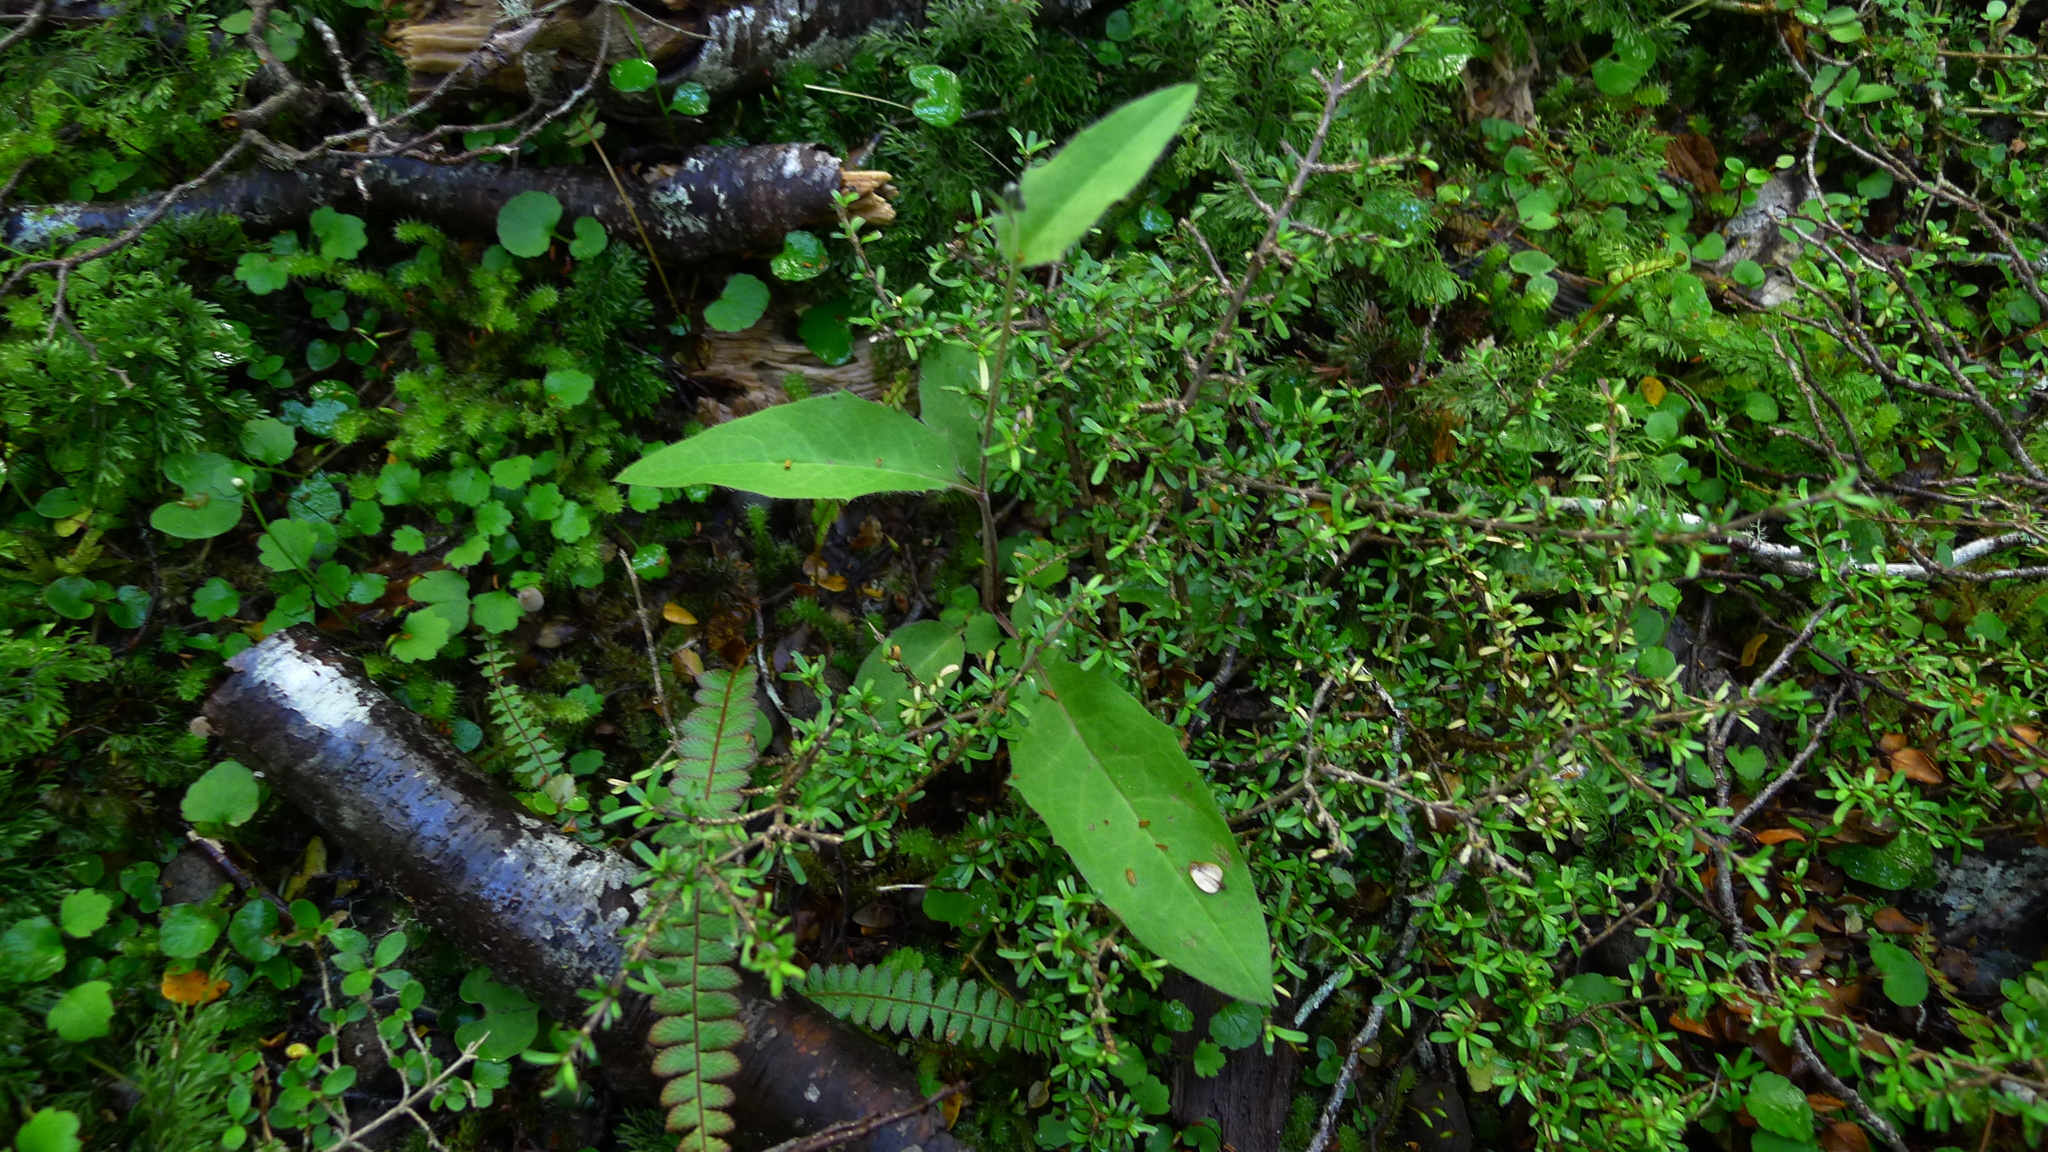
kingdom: Plantae
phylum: Tracheophyta
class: Magnoliopsida
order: Asterales
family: Asteraceae
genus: Hieracium
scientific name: Hieracium lepidulum
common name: Irregular-toothed hawkweed
